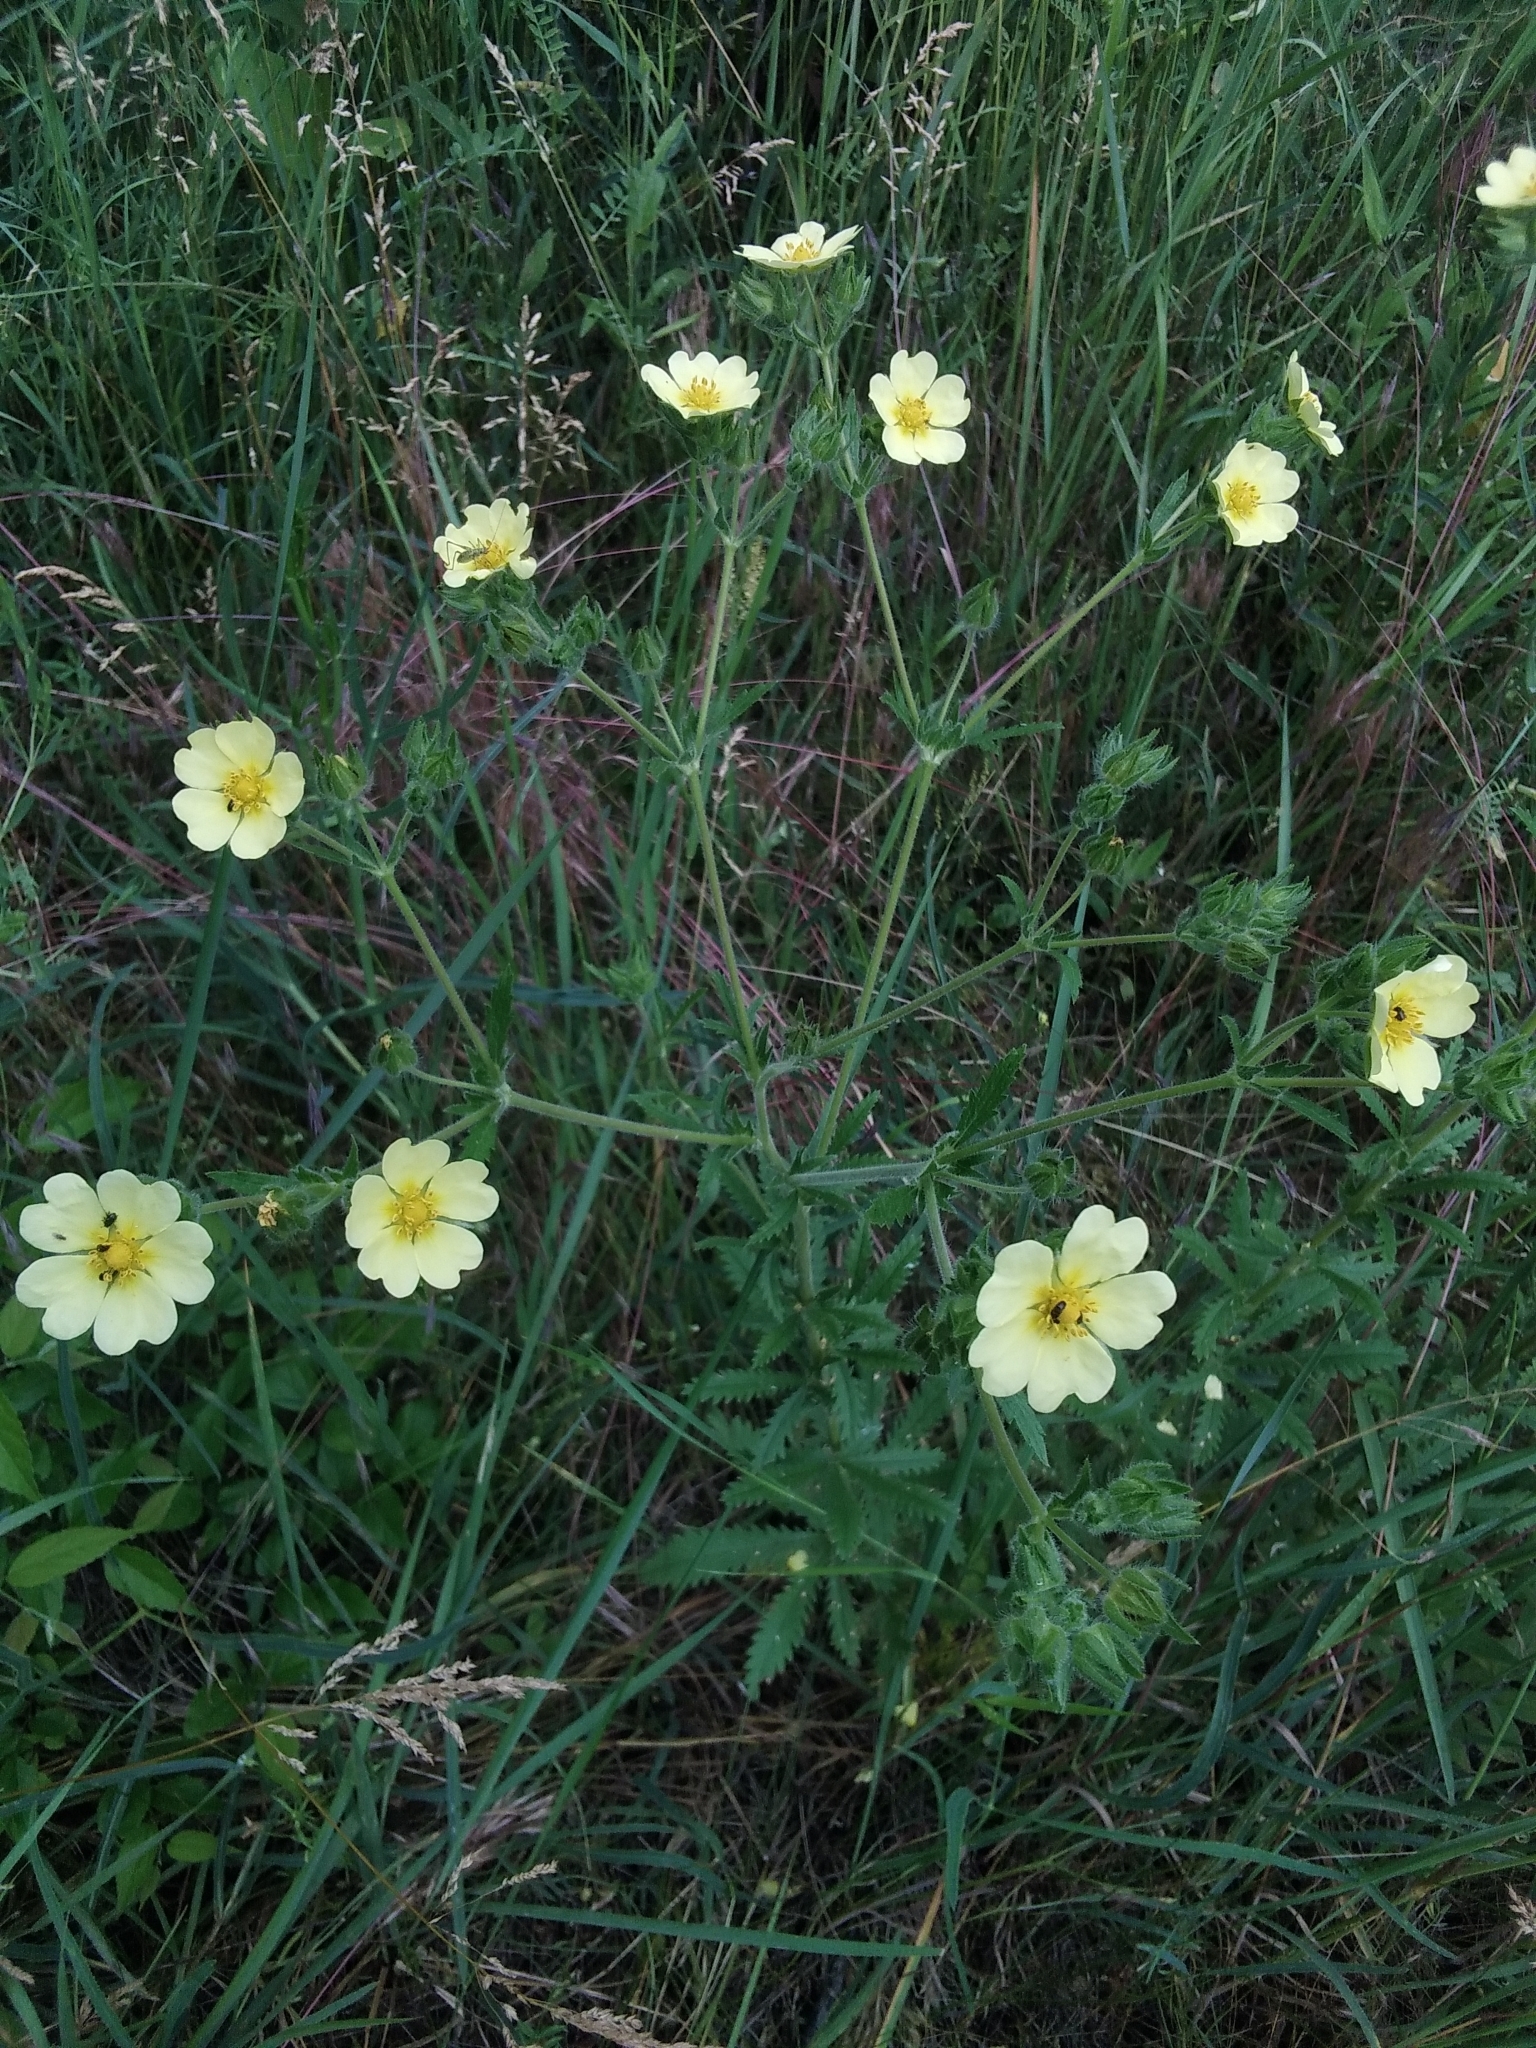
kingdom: Plantae
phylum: Tracheophyta
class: Magnoliopsida
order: Rosales
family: Rosaceae
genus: Potentilla
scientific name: Potentilla recta
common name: Sulphur cinquefoil
